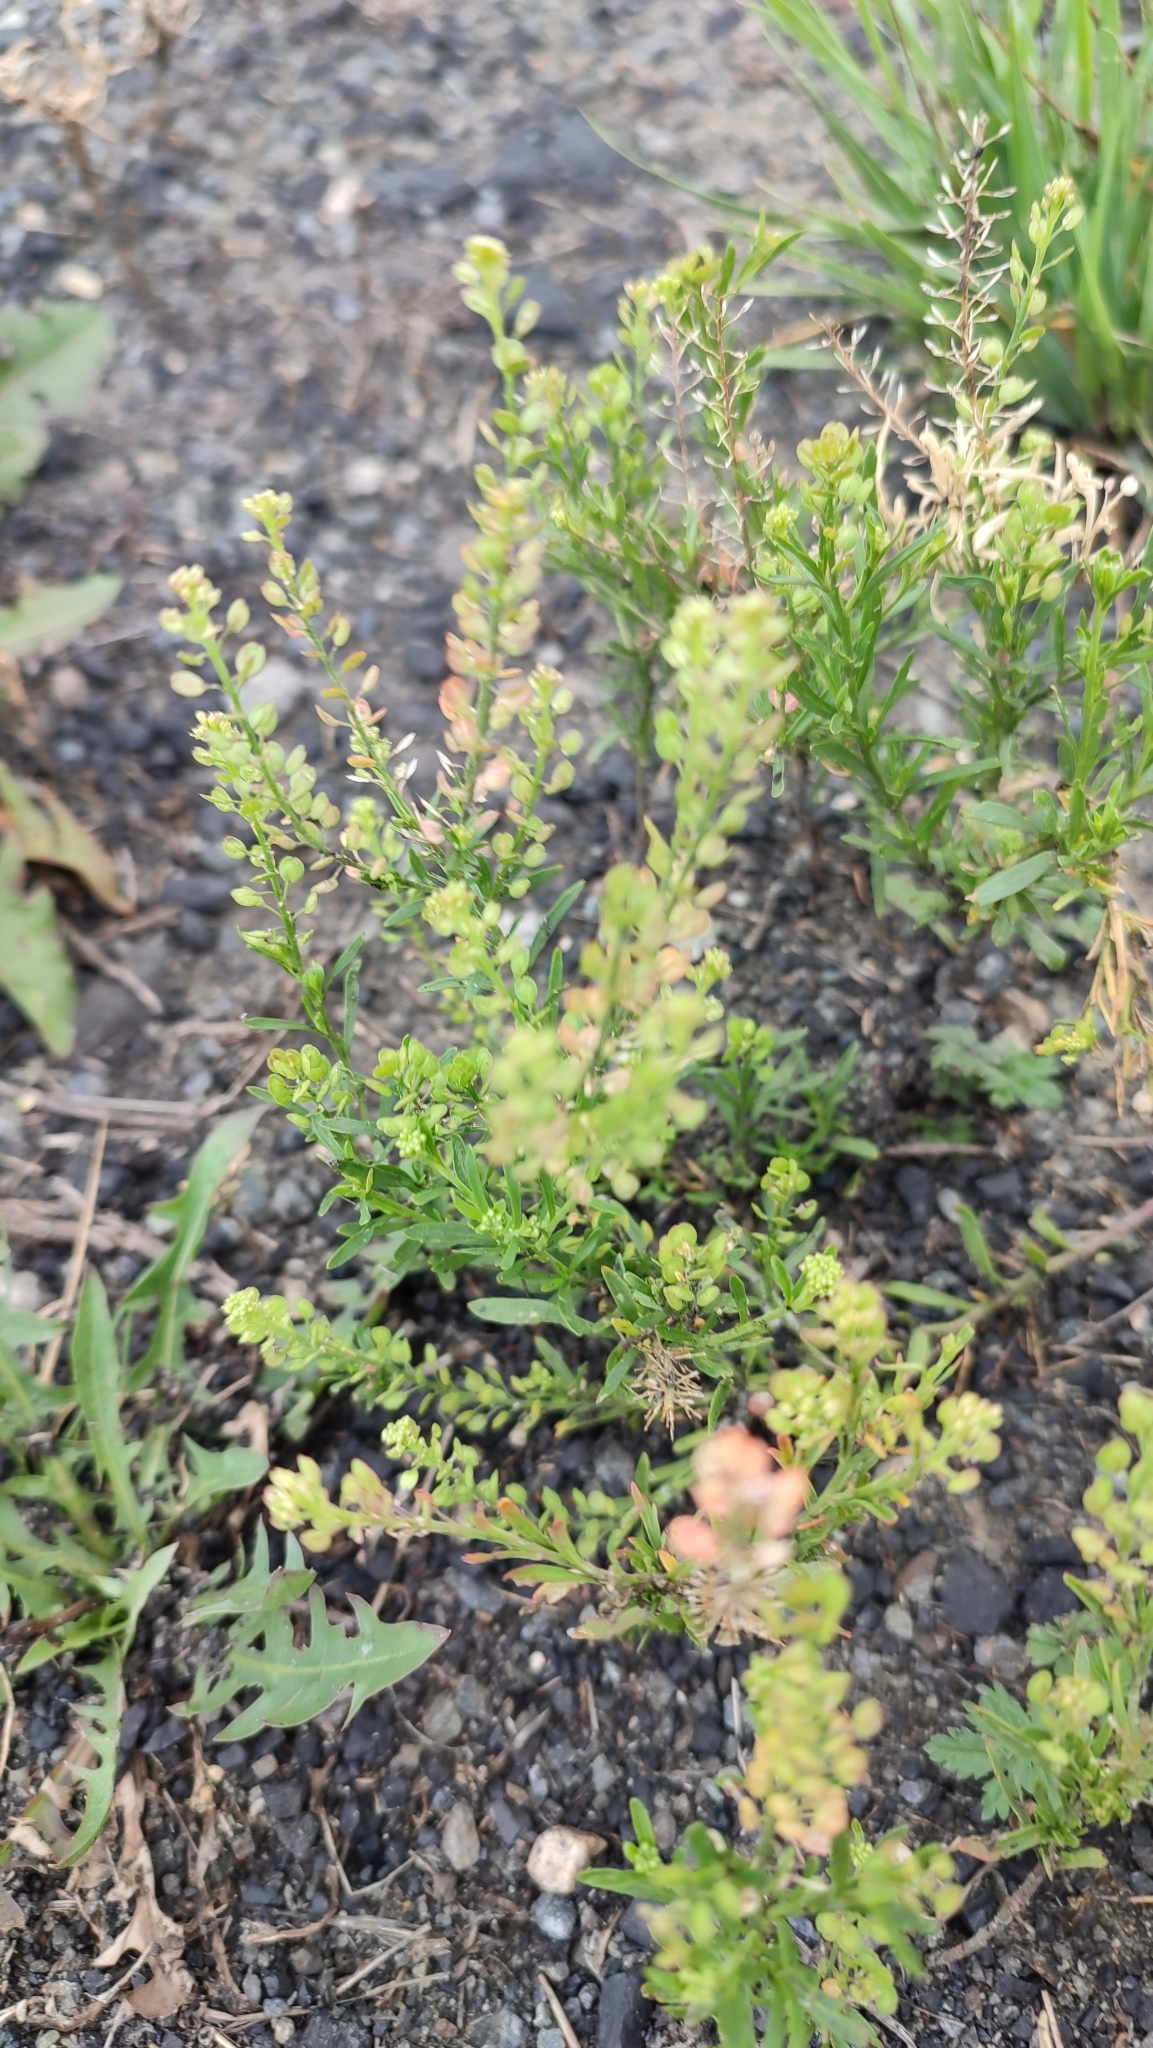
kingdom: Plantae
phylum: Tracheophyta
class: Magnoliopsida
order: Brassicales
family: Brassicaceae
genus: Lepidium
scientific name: Lepidium densiflorum
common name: Miner's pepperwort
